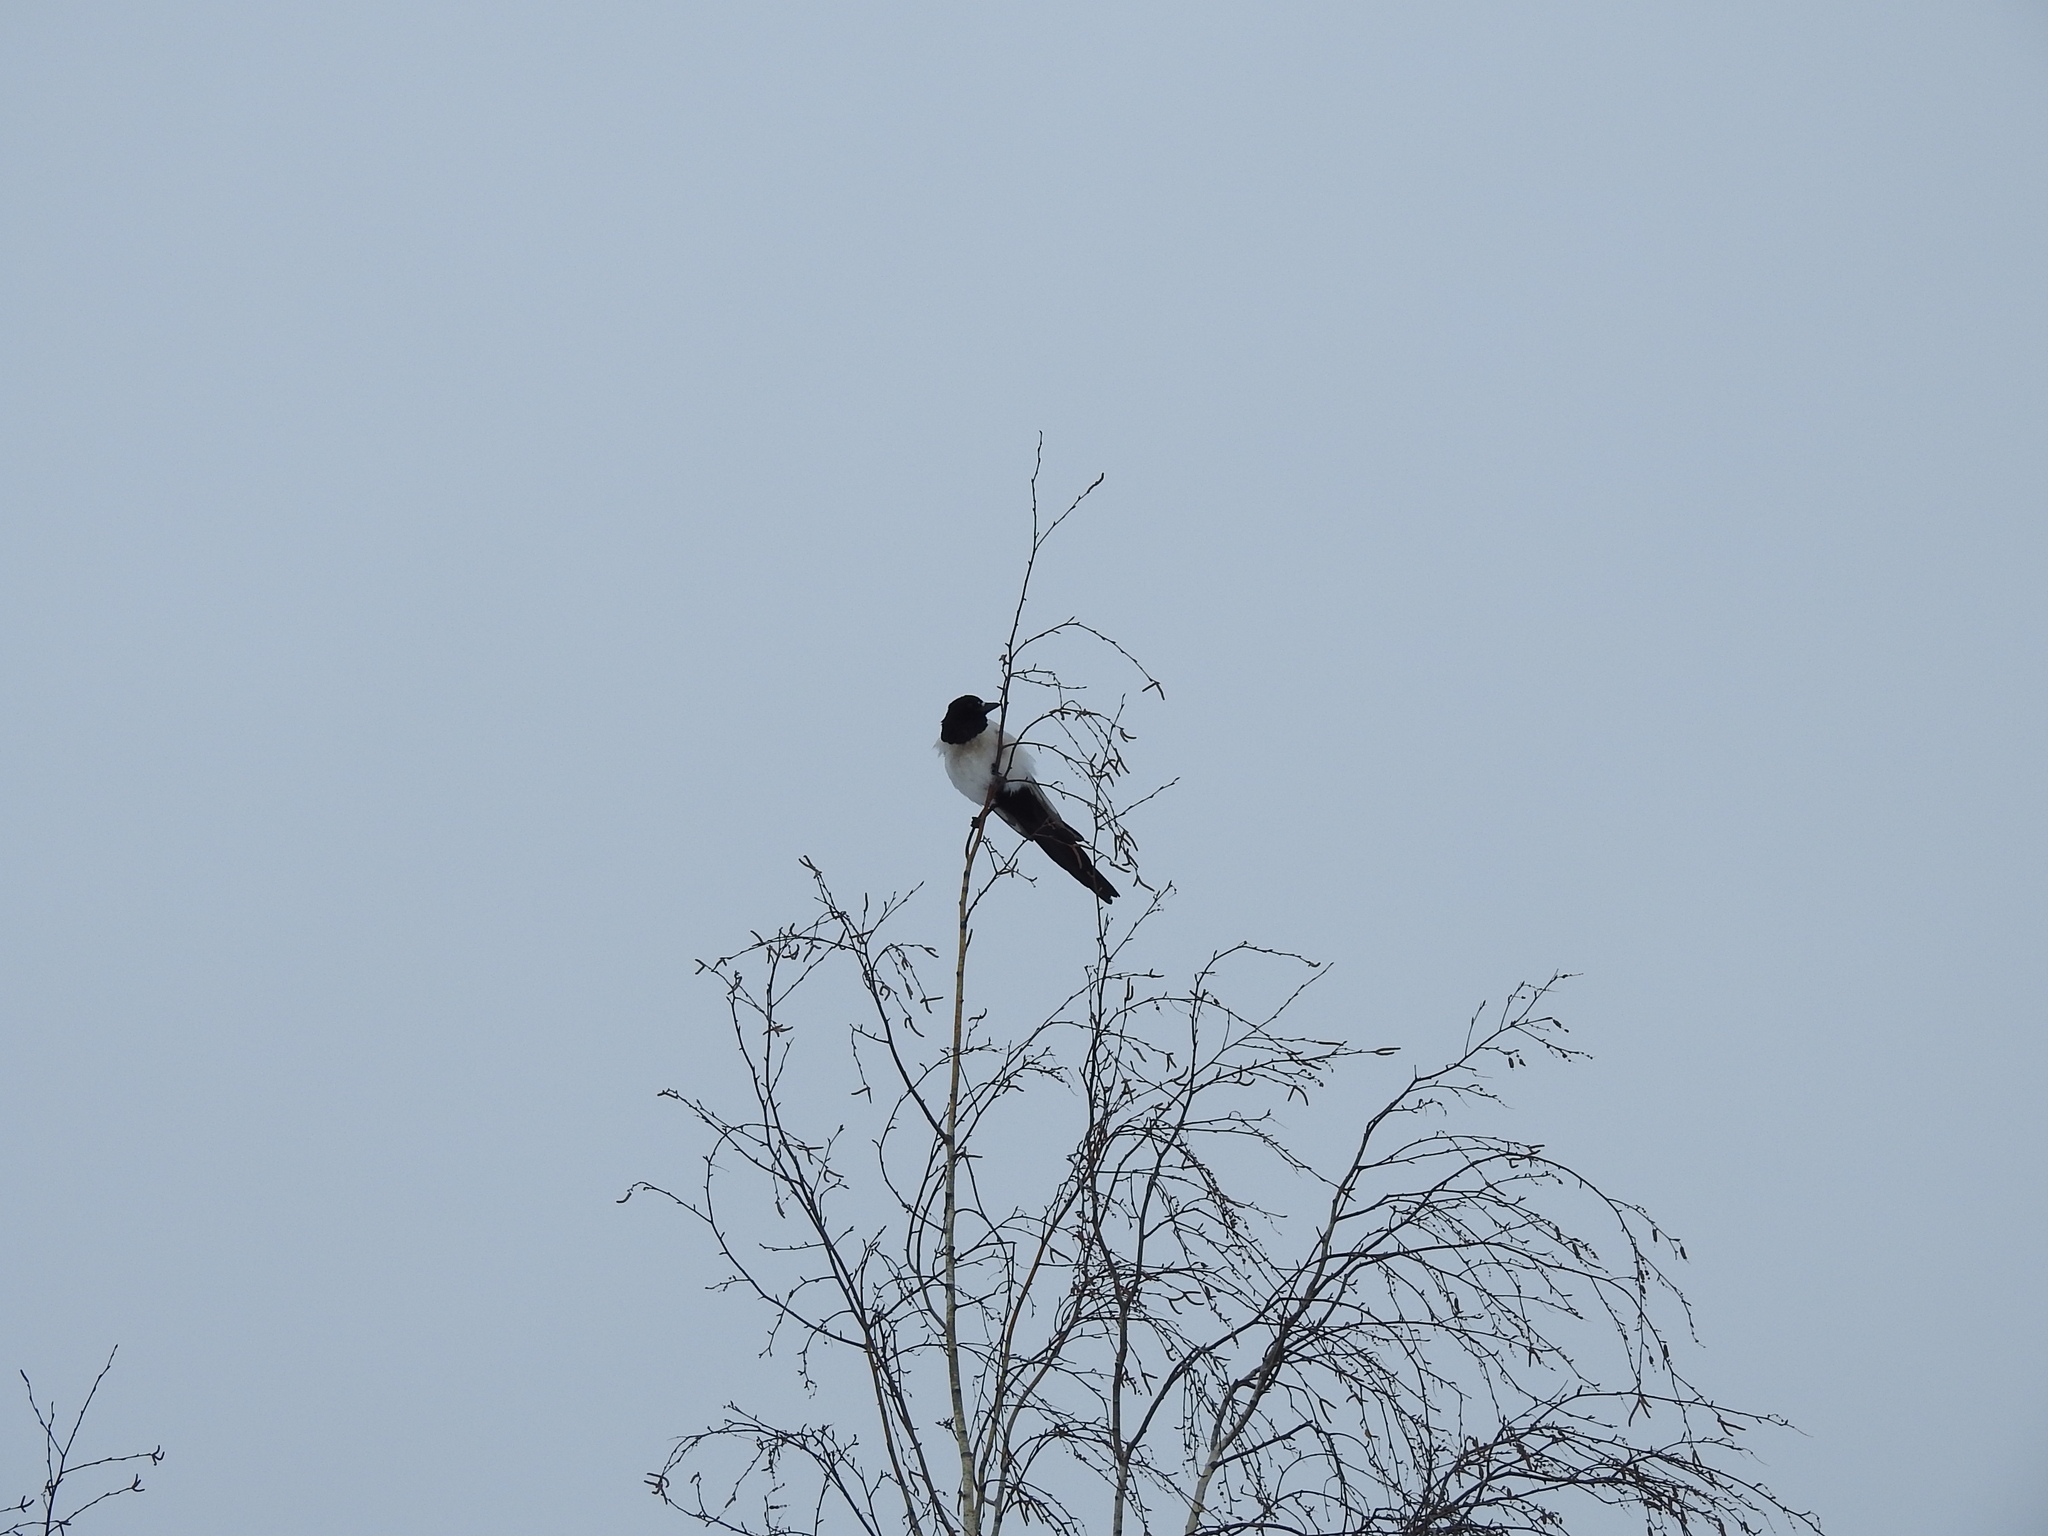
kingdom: Animalia
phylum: Chordata
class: Aves
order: Passeriformes
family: Corvidae
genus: Pica
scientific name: Pica pica
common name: Eurasian magpie
